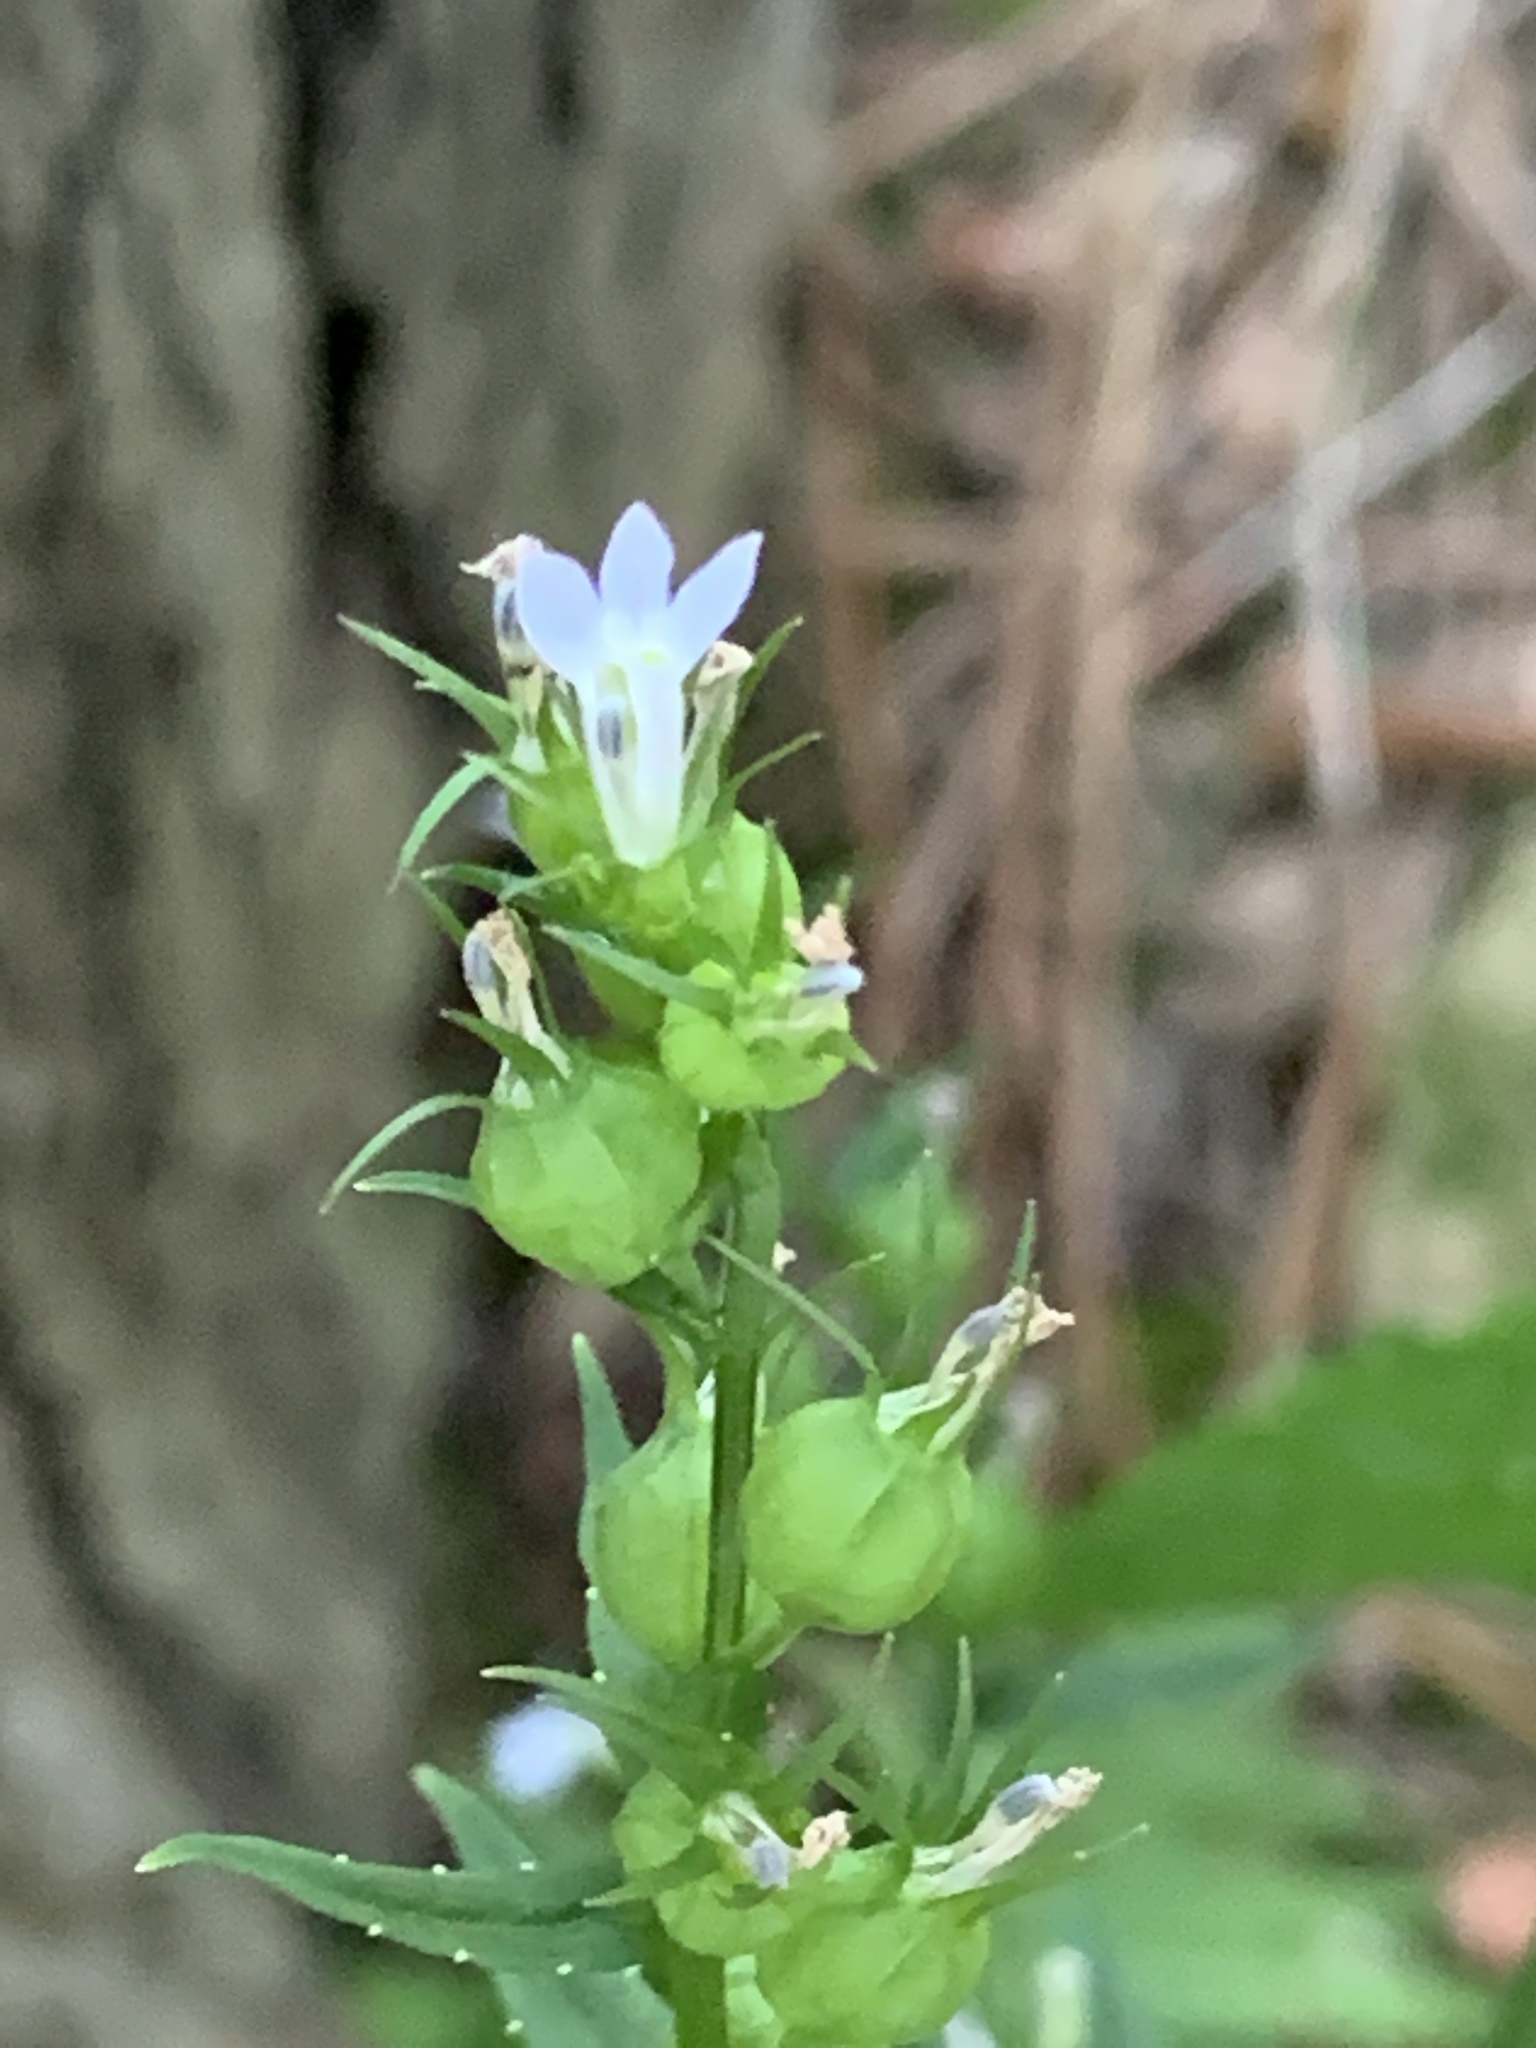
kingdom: Plantae
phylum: Tracheophyta
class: Magnoliopsida
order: Asterales
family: Campanulaceae
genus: Lobelia
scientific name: Lobelia inflata
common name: Indian tobacco
